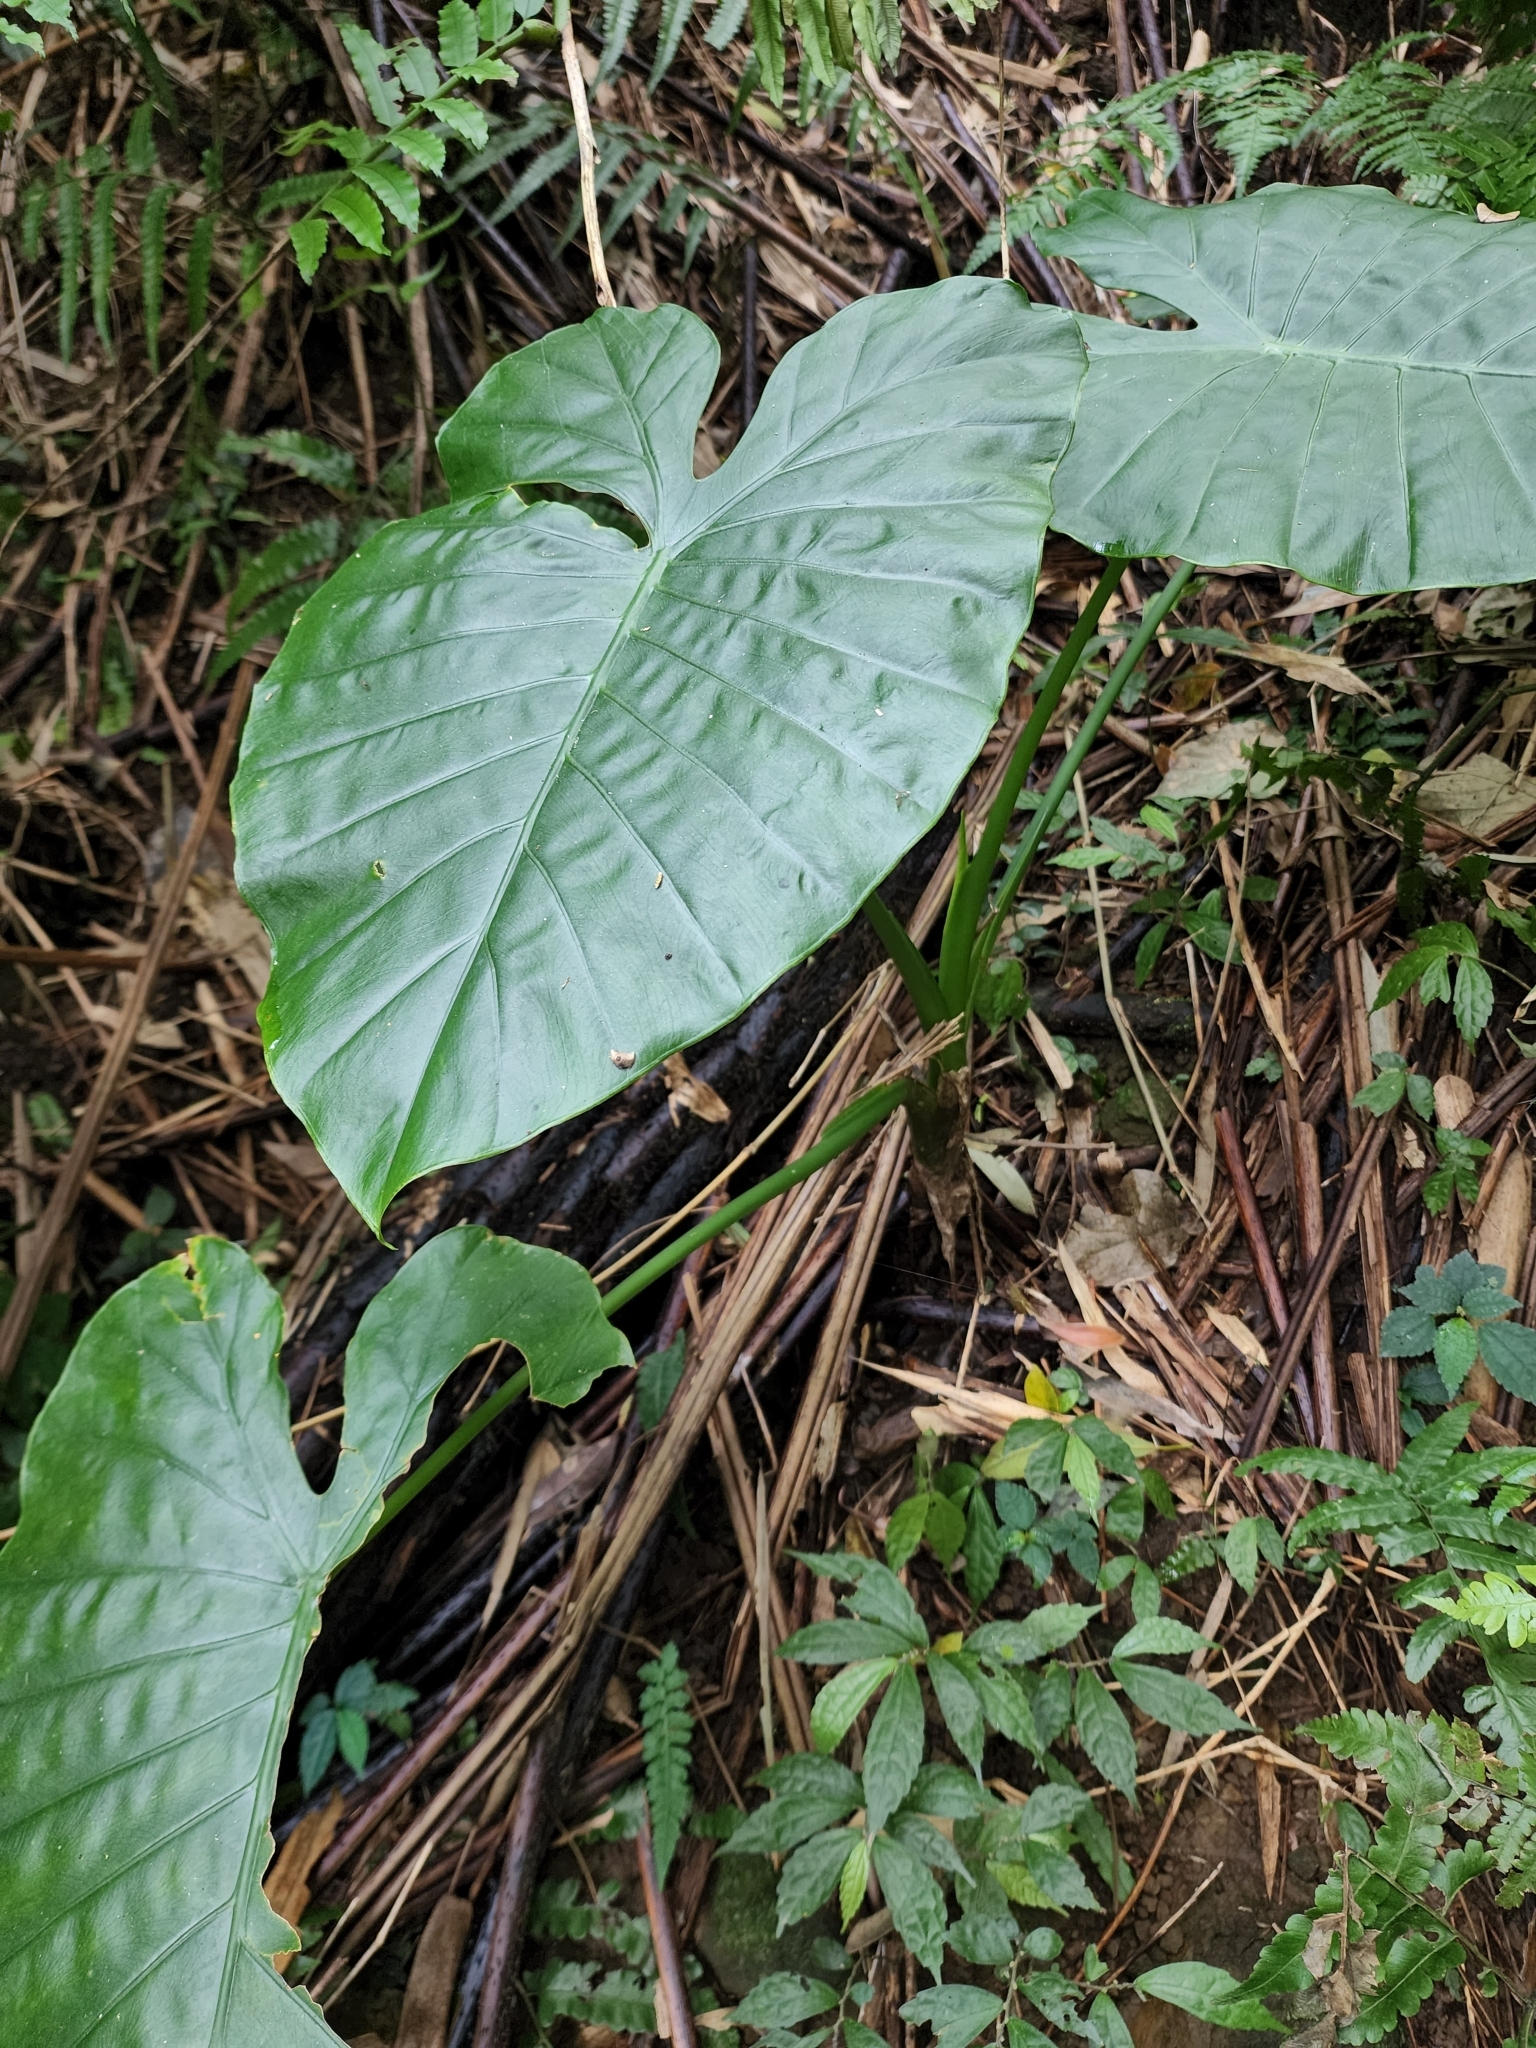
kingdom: Plantae
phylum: Tracheophyta
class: Liliopsida
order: Alismatales
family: Araceae
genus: Alocasia
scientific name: Alocasia odora
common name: Asian taro
